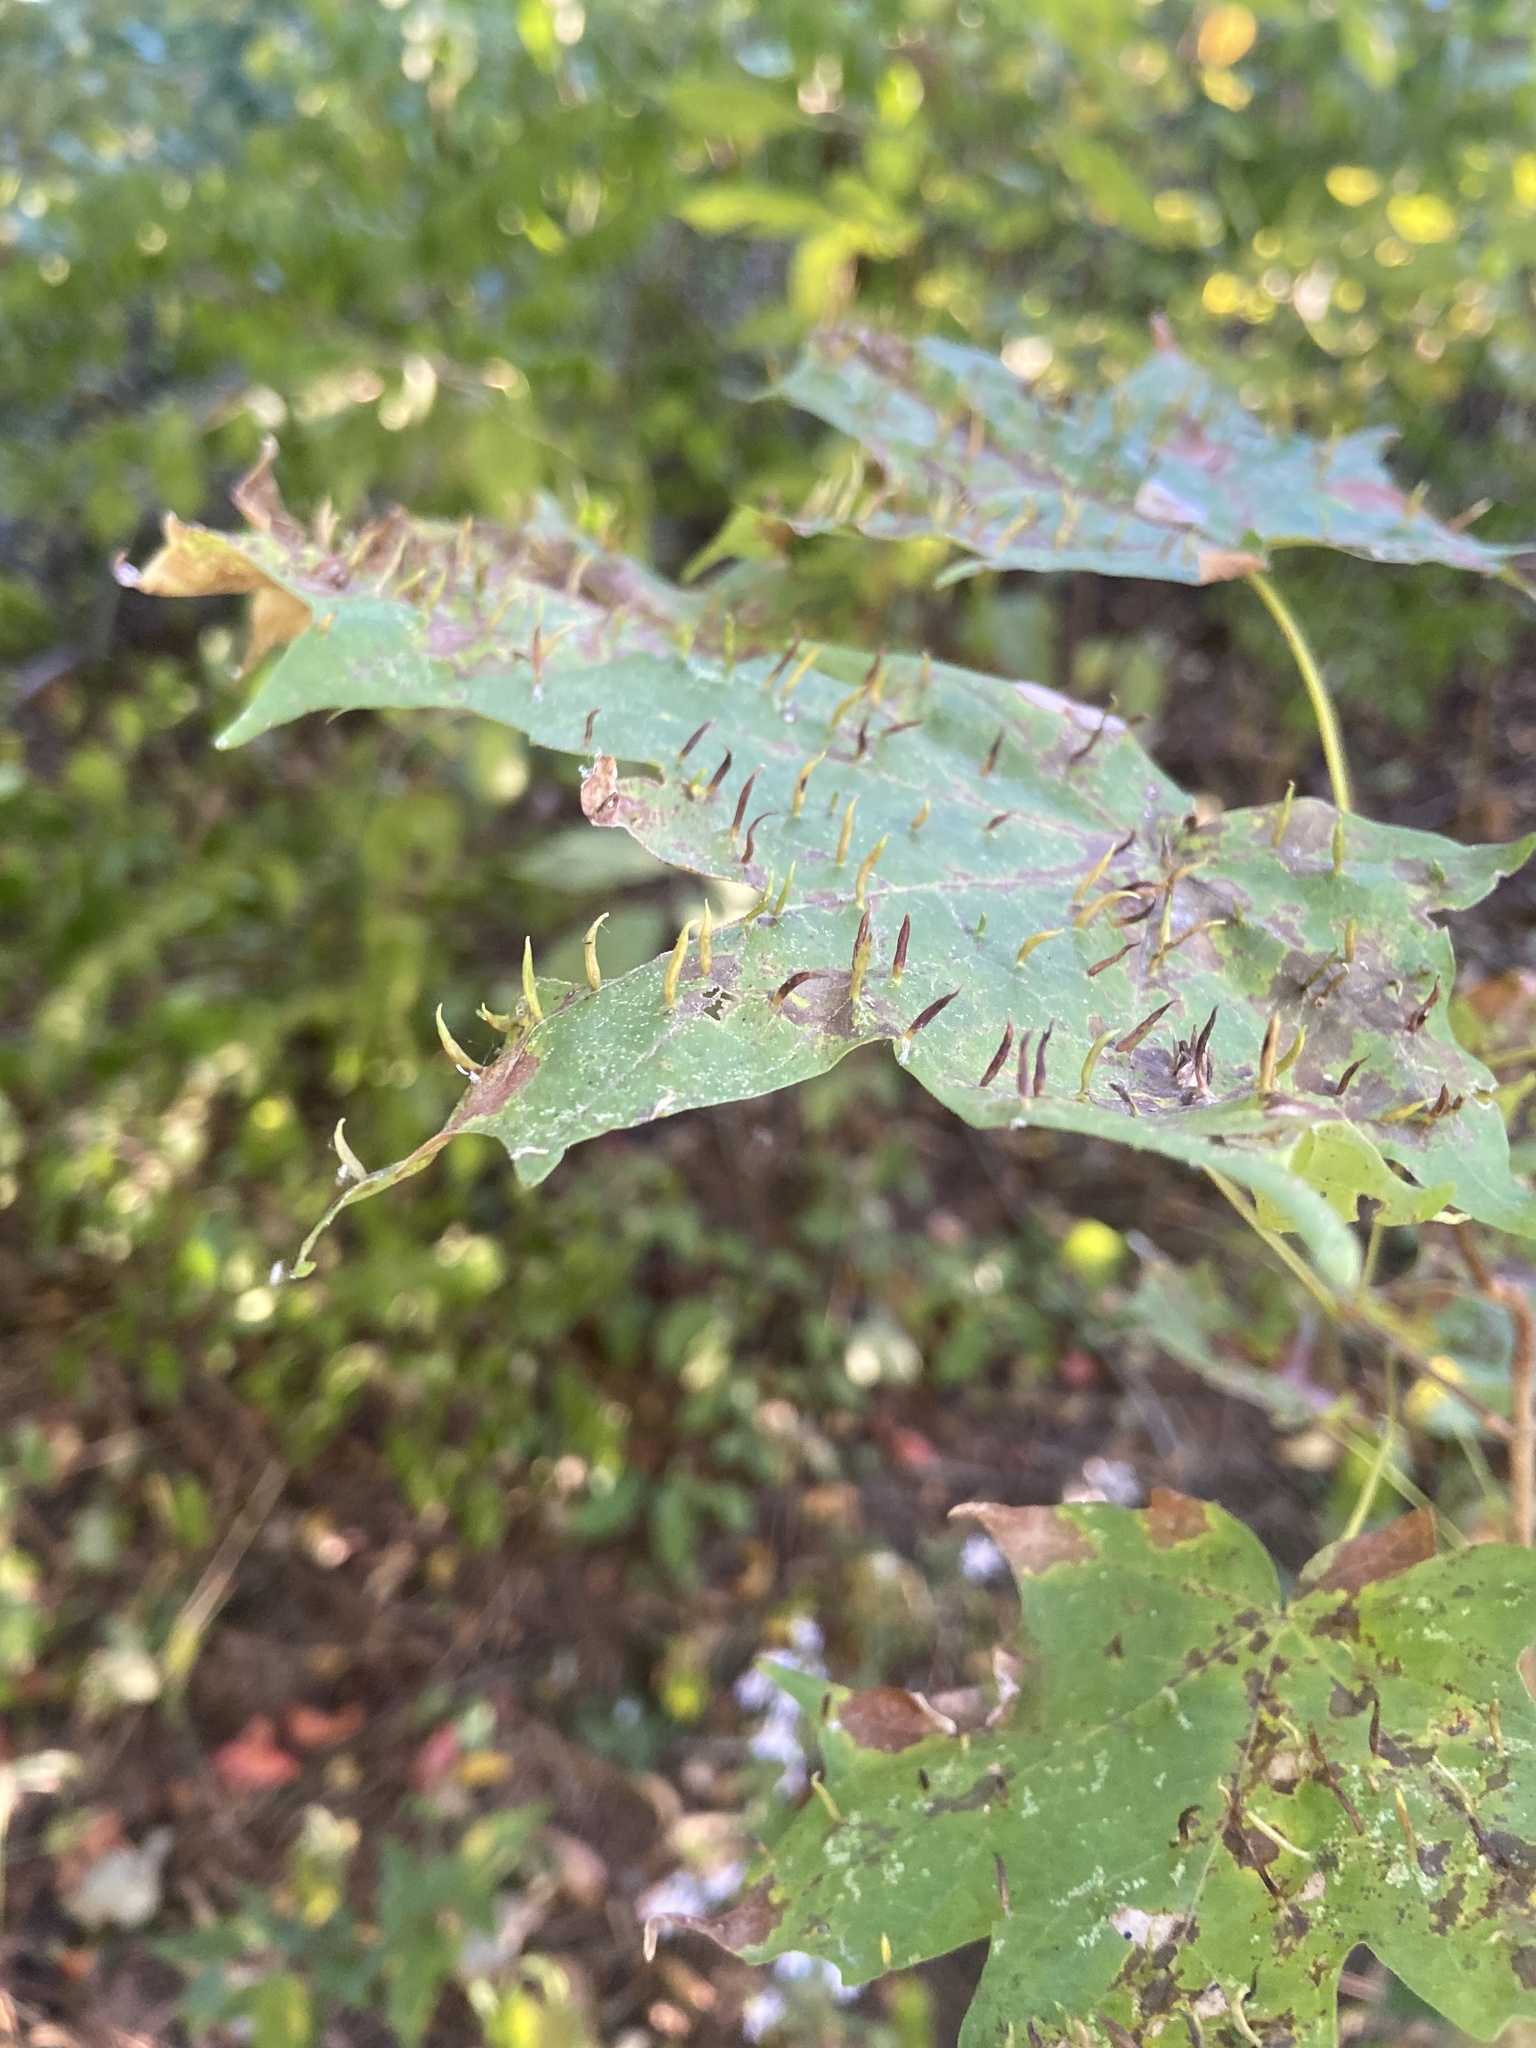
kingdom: Animalia
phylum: Arthropoda
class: Arachnida
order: Trombidiformes
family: Eriophyidae
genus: Vasates
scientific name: Vasates aceriscrumena
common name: Maple spindle gall mite
